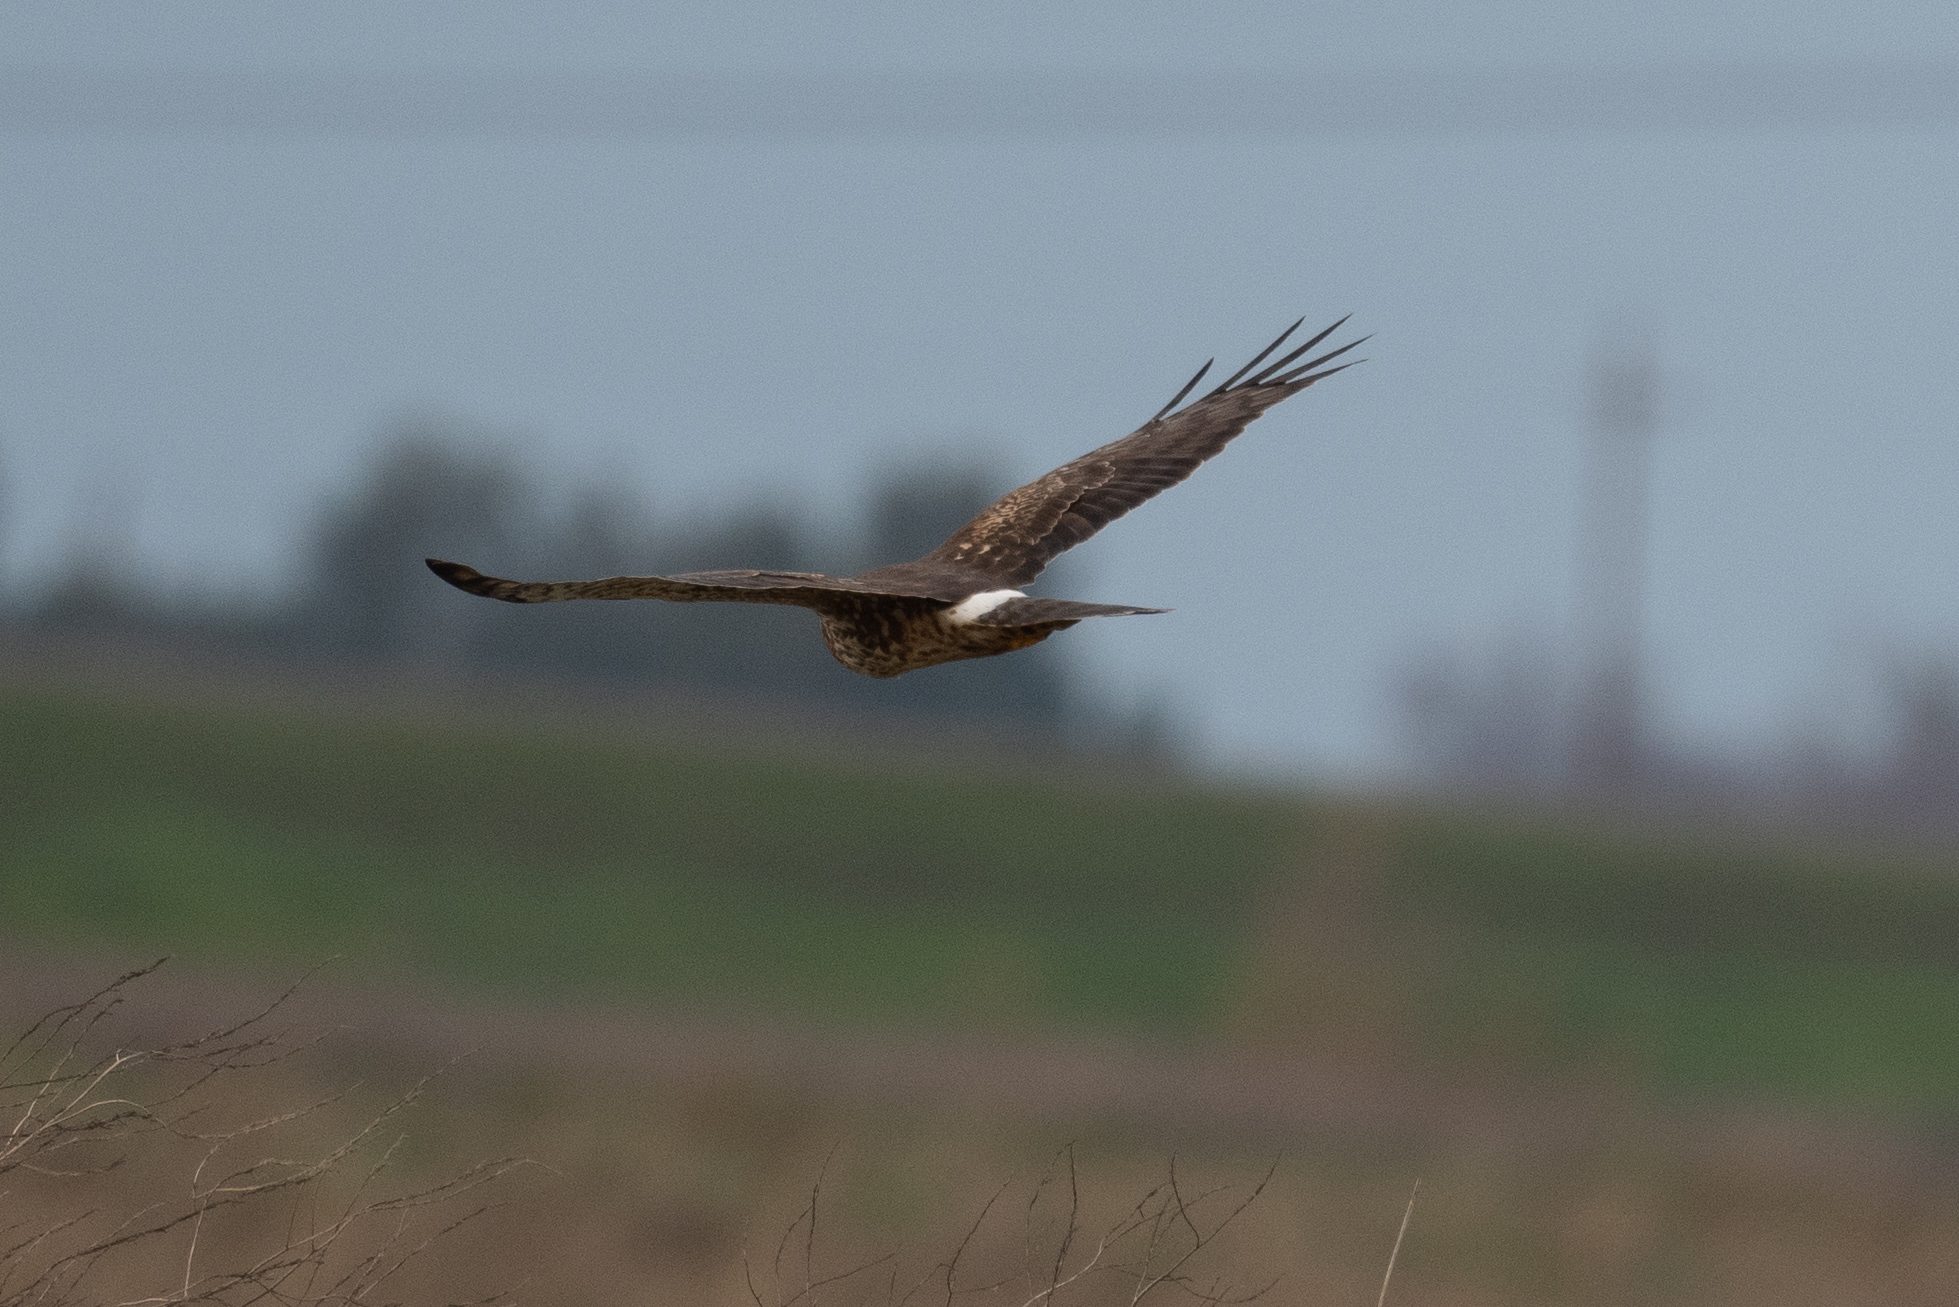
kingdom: Animalia
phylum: Chordata
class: Aves
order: Accipitriformes
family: Accipitridae
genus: Circus
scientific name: Circus cyaneus
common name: Hen harrier
